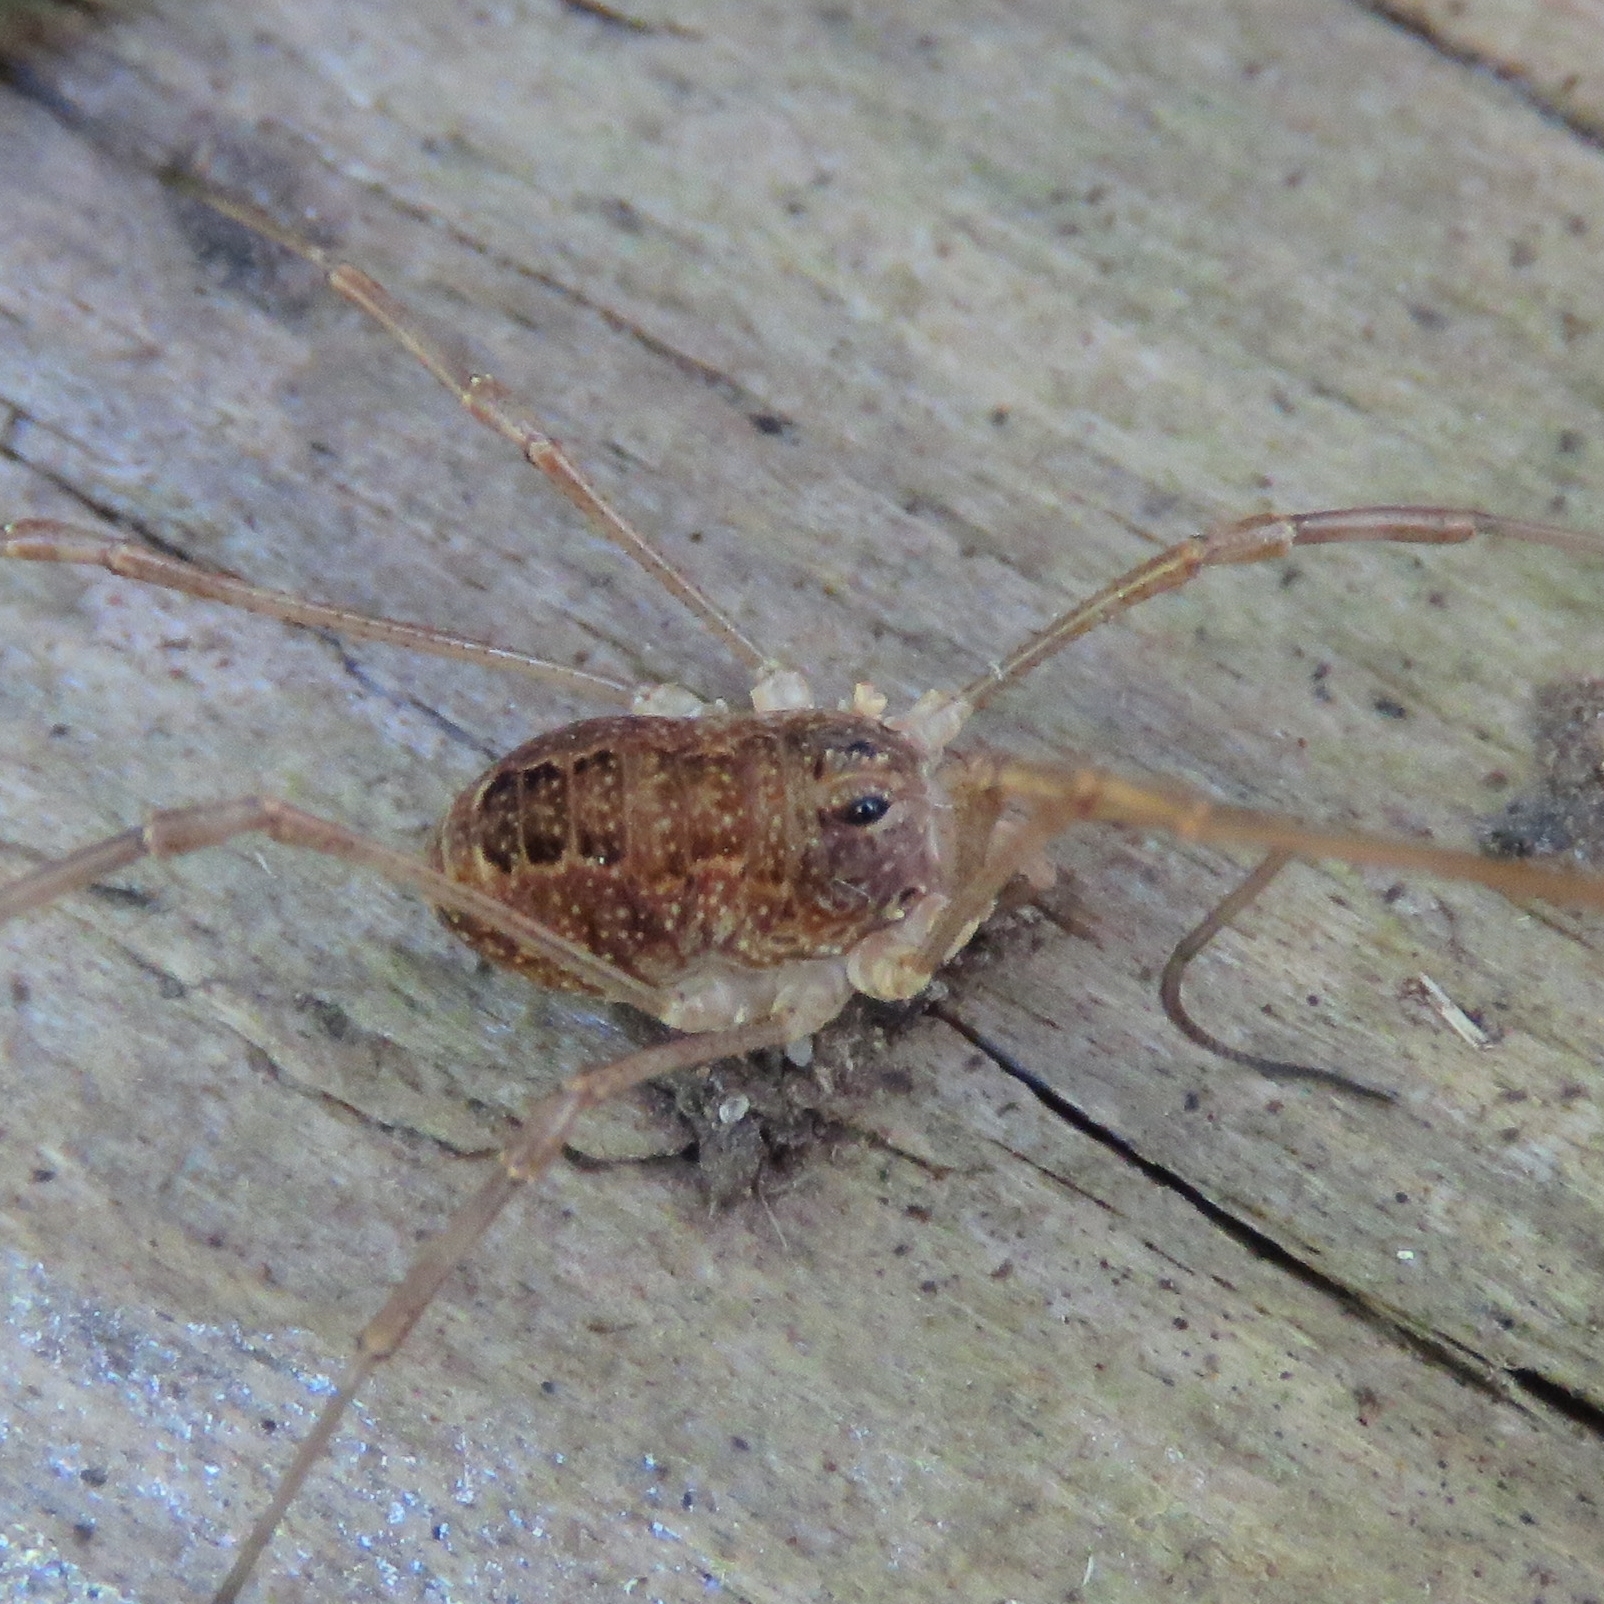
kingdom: Animalia
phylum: Arthropoda
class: Arachnida
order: Opiliones
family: Phalangiidae
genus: Rilaena
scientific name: Rilaena triangularis
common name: Spring harvestman
